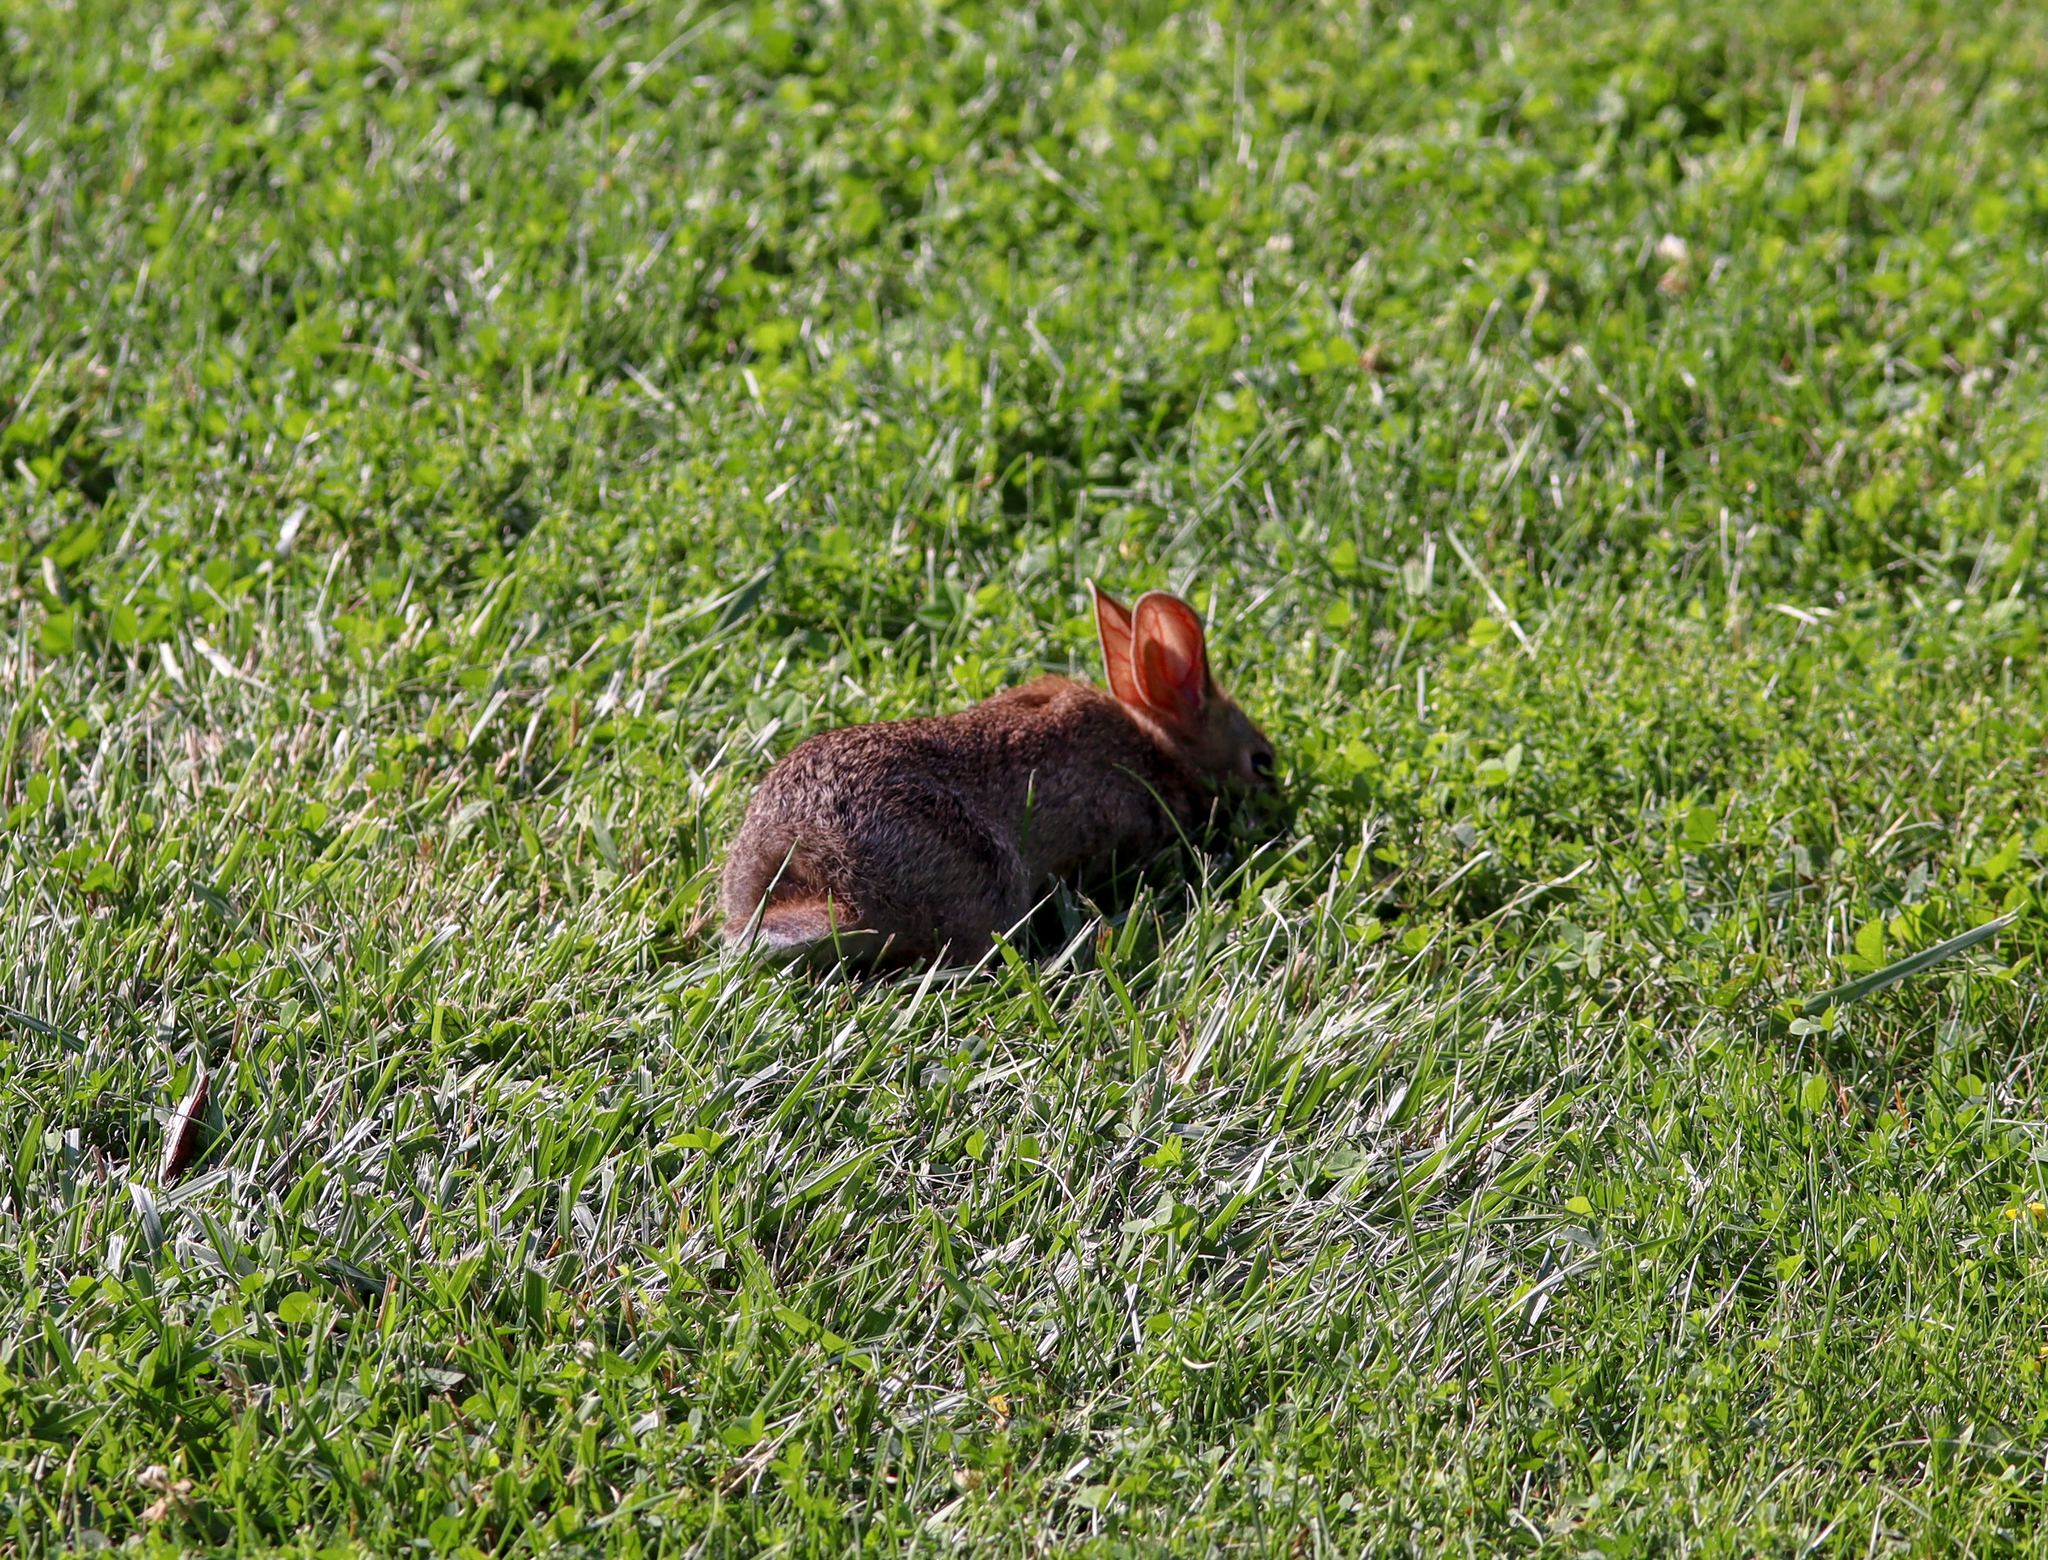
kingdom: Animalia
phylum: Chordata
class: Mammalia
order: Lagomorpha
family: Leporidae
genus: Sylvilagus
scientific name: Sylvilagus floridanus
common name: Eastern cottontail
